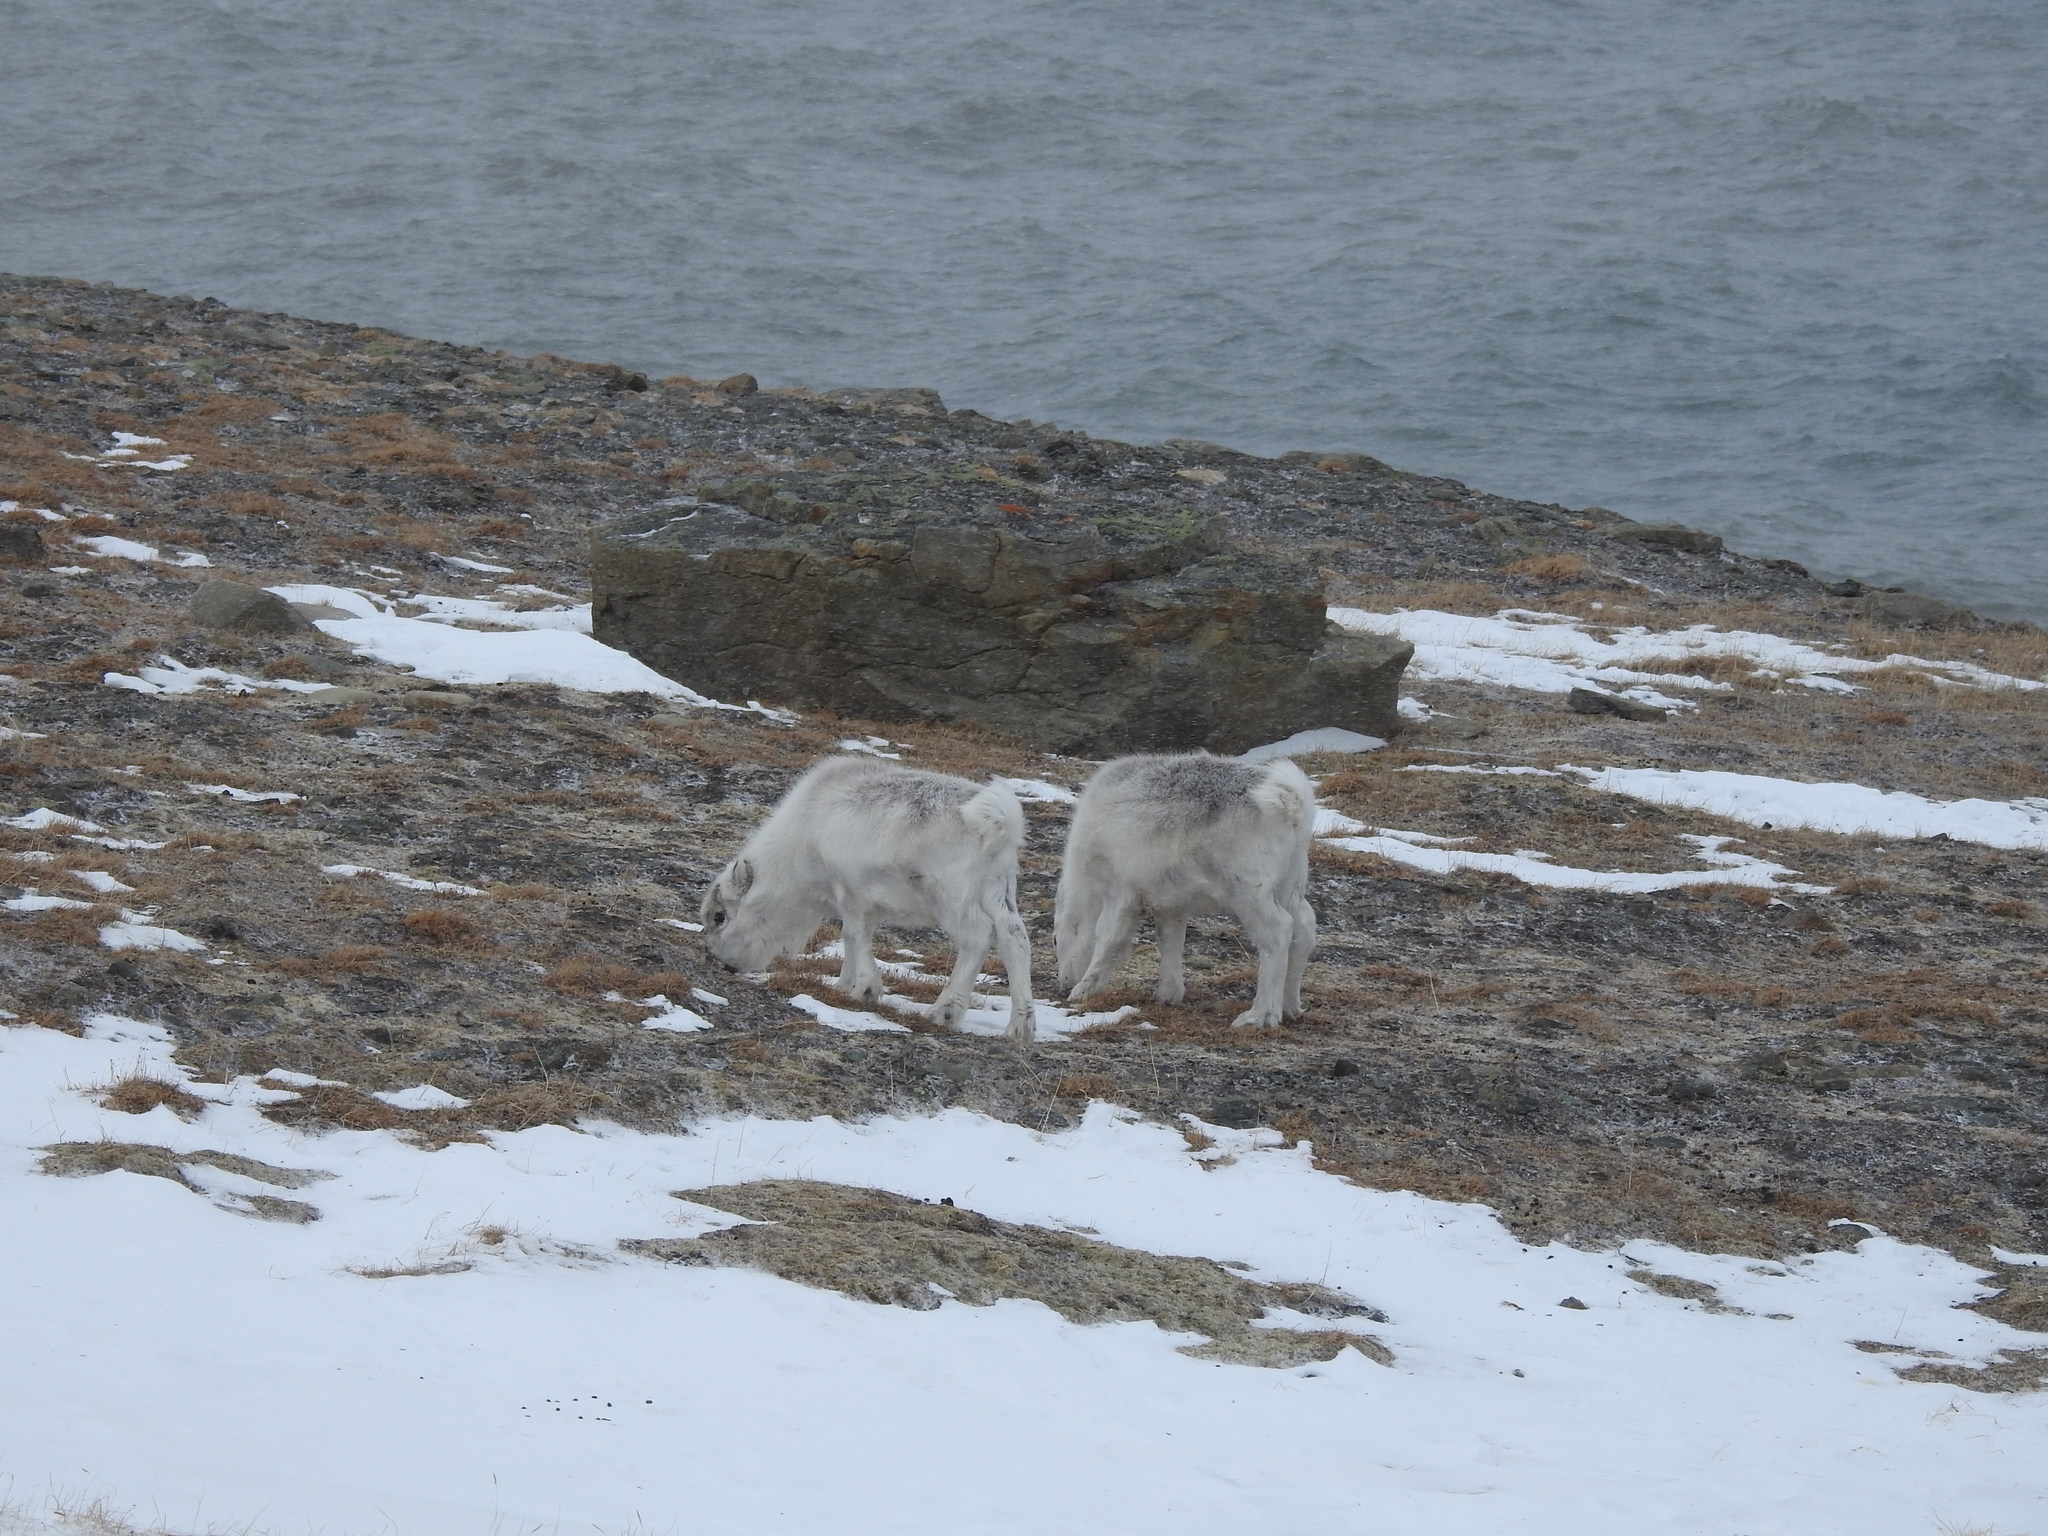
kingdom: Animalia
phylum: Chordata
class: Mammalia
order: Artiodactyla
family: Cervidae
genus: Rangifer
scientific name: Rangifer tarandus
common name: Reindeer
